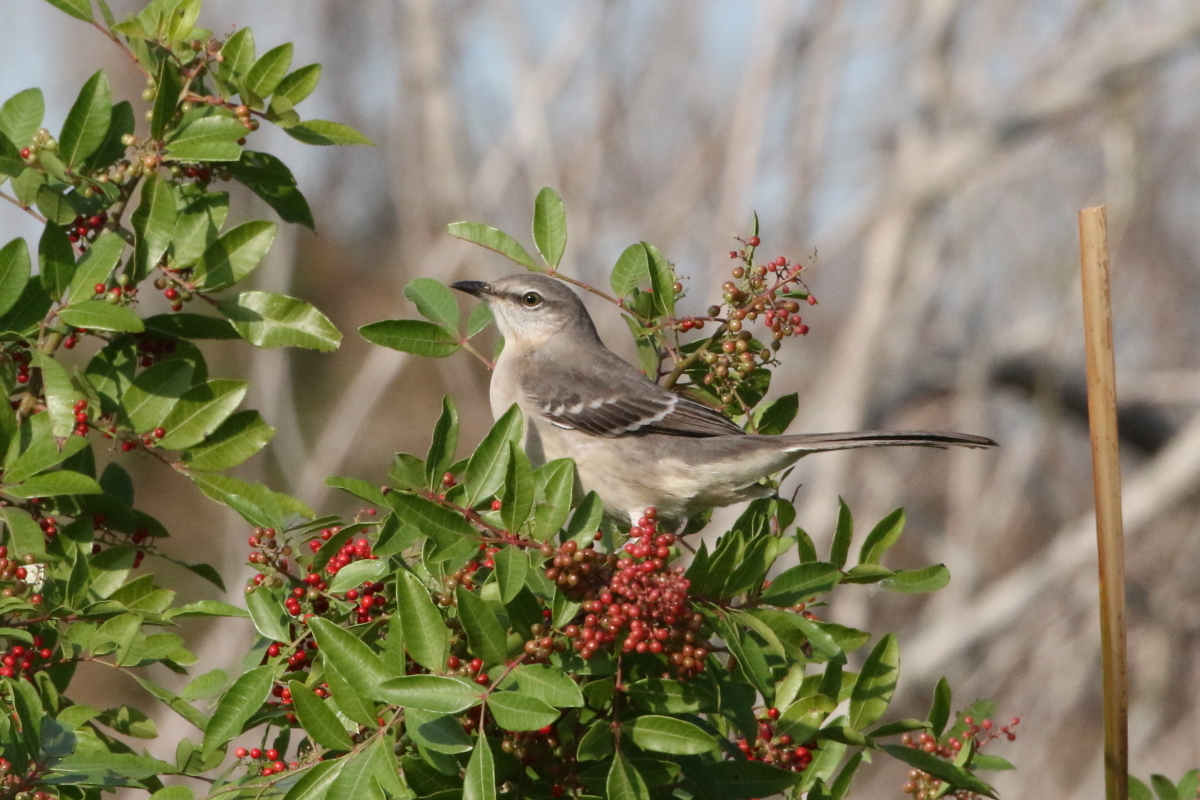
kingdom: Animalia
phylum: Chordata
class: Aves
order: Passeriformes
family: Mimidae
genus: Mimus
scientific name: Mimus polyglottos
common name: Northern mockingbird
